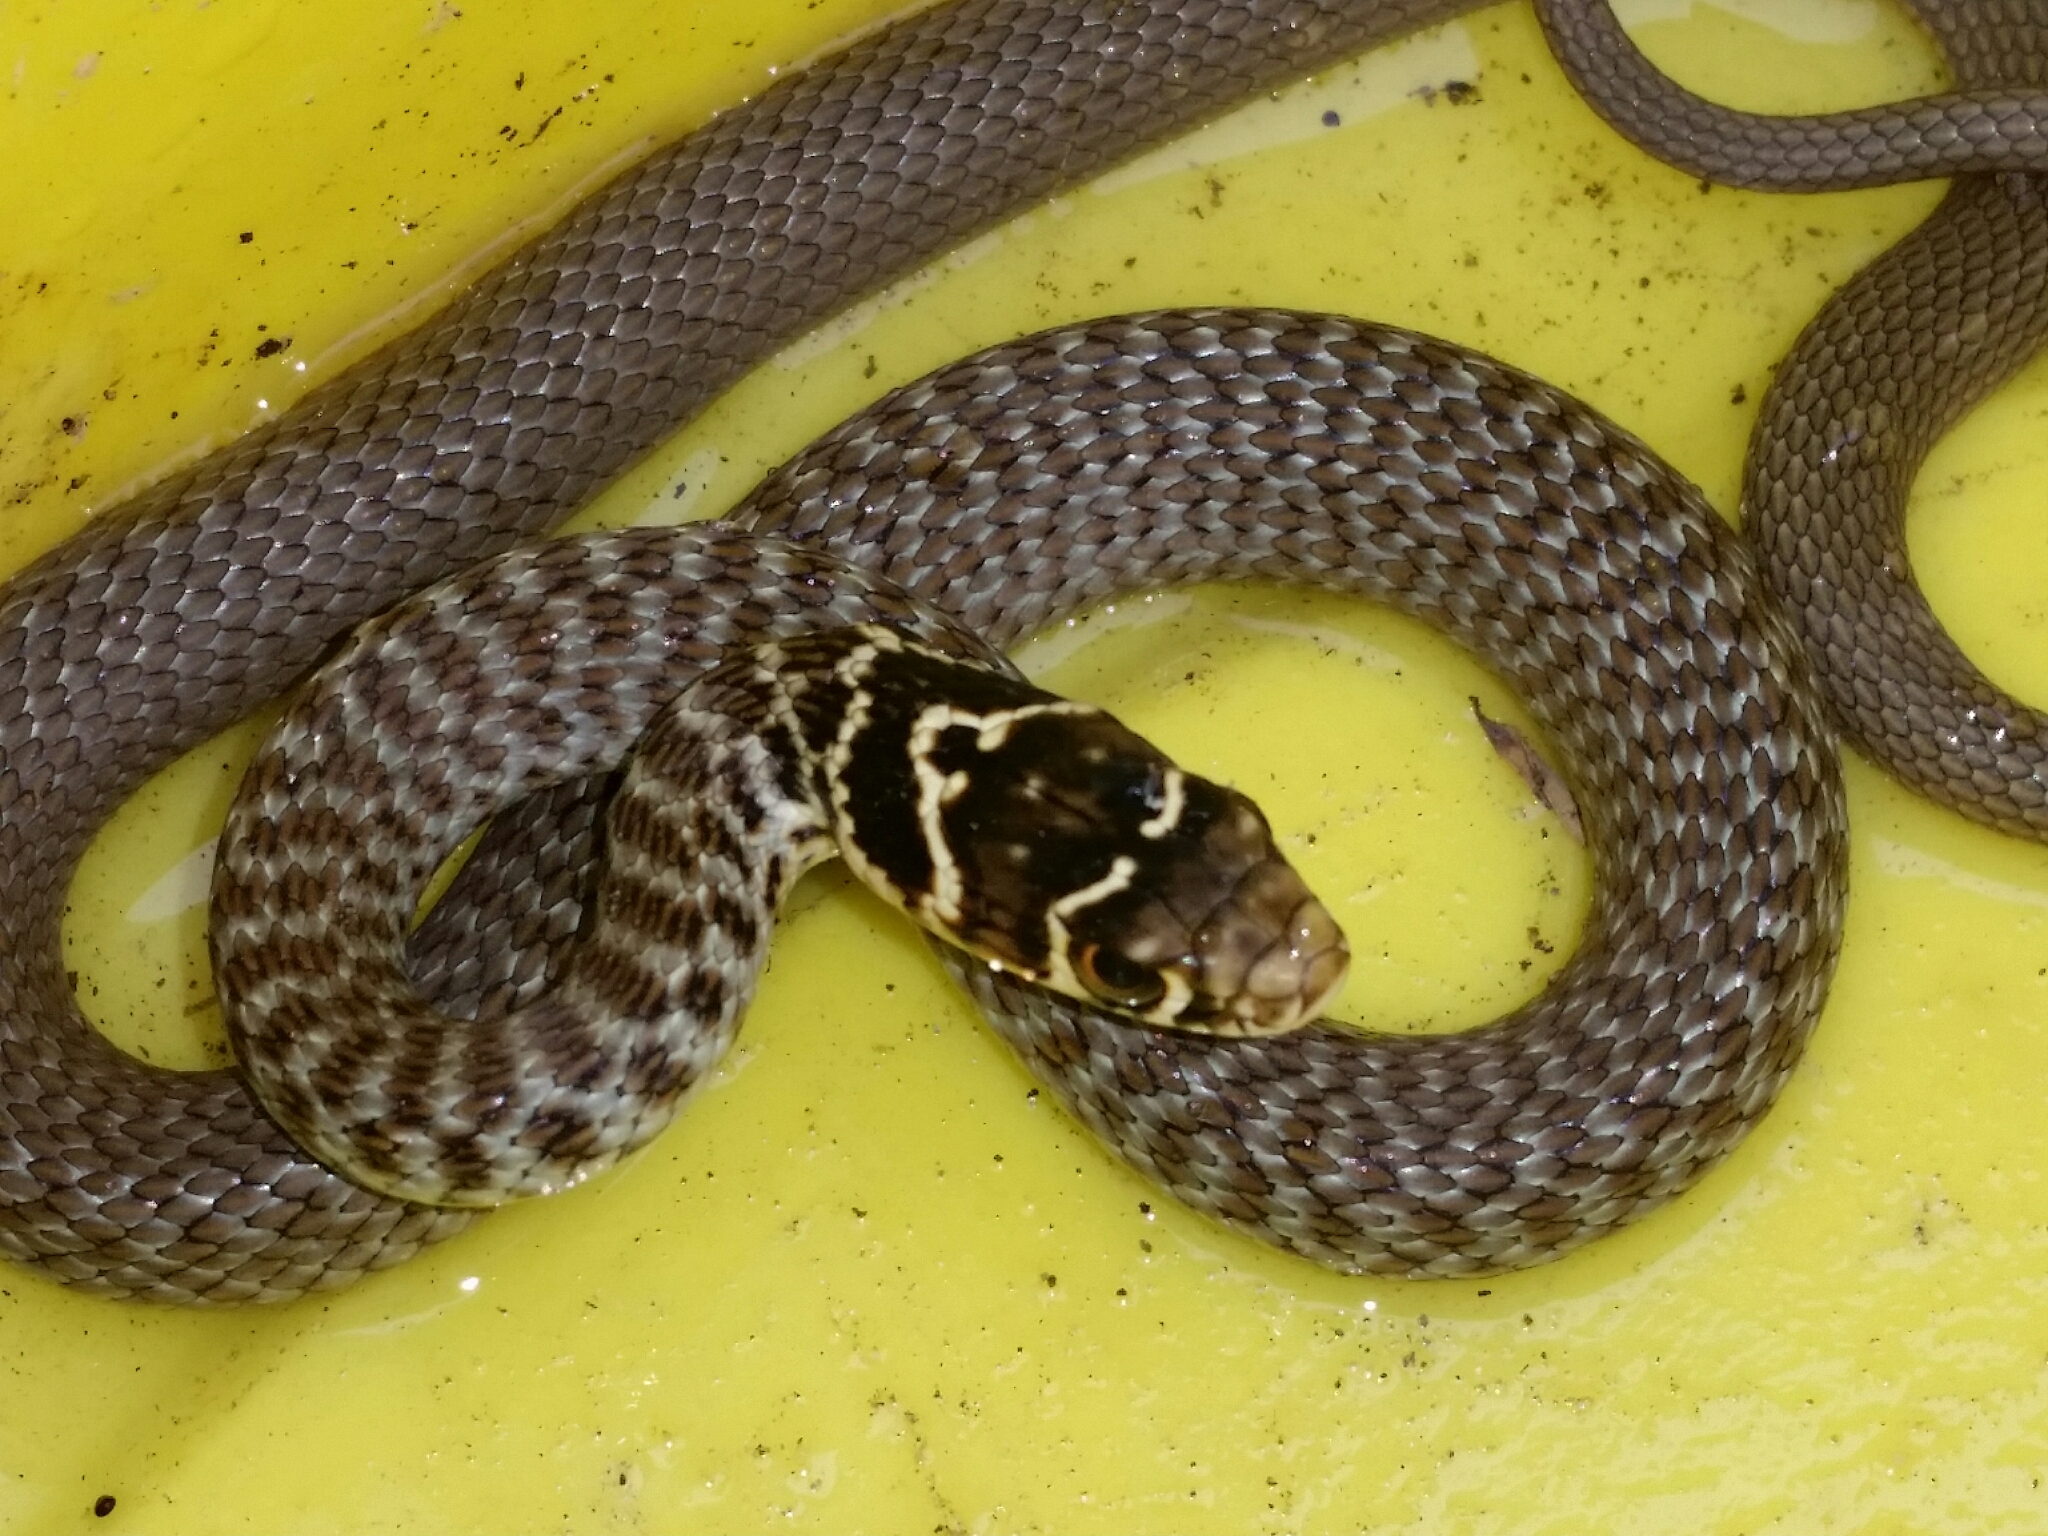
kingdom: Animalia
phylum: Chordata
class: Squamata
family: Colubridae
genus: Hierophis
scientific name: Hierophis viridiflavus
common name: Green whip snake
